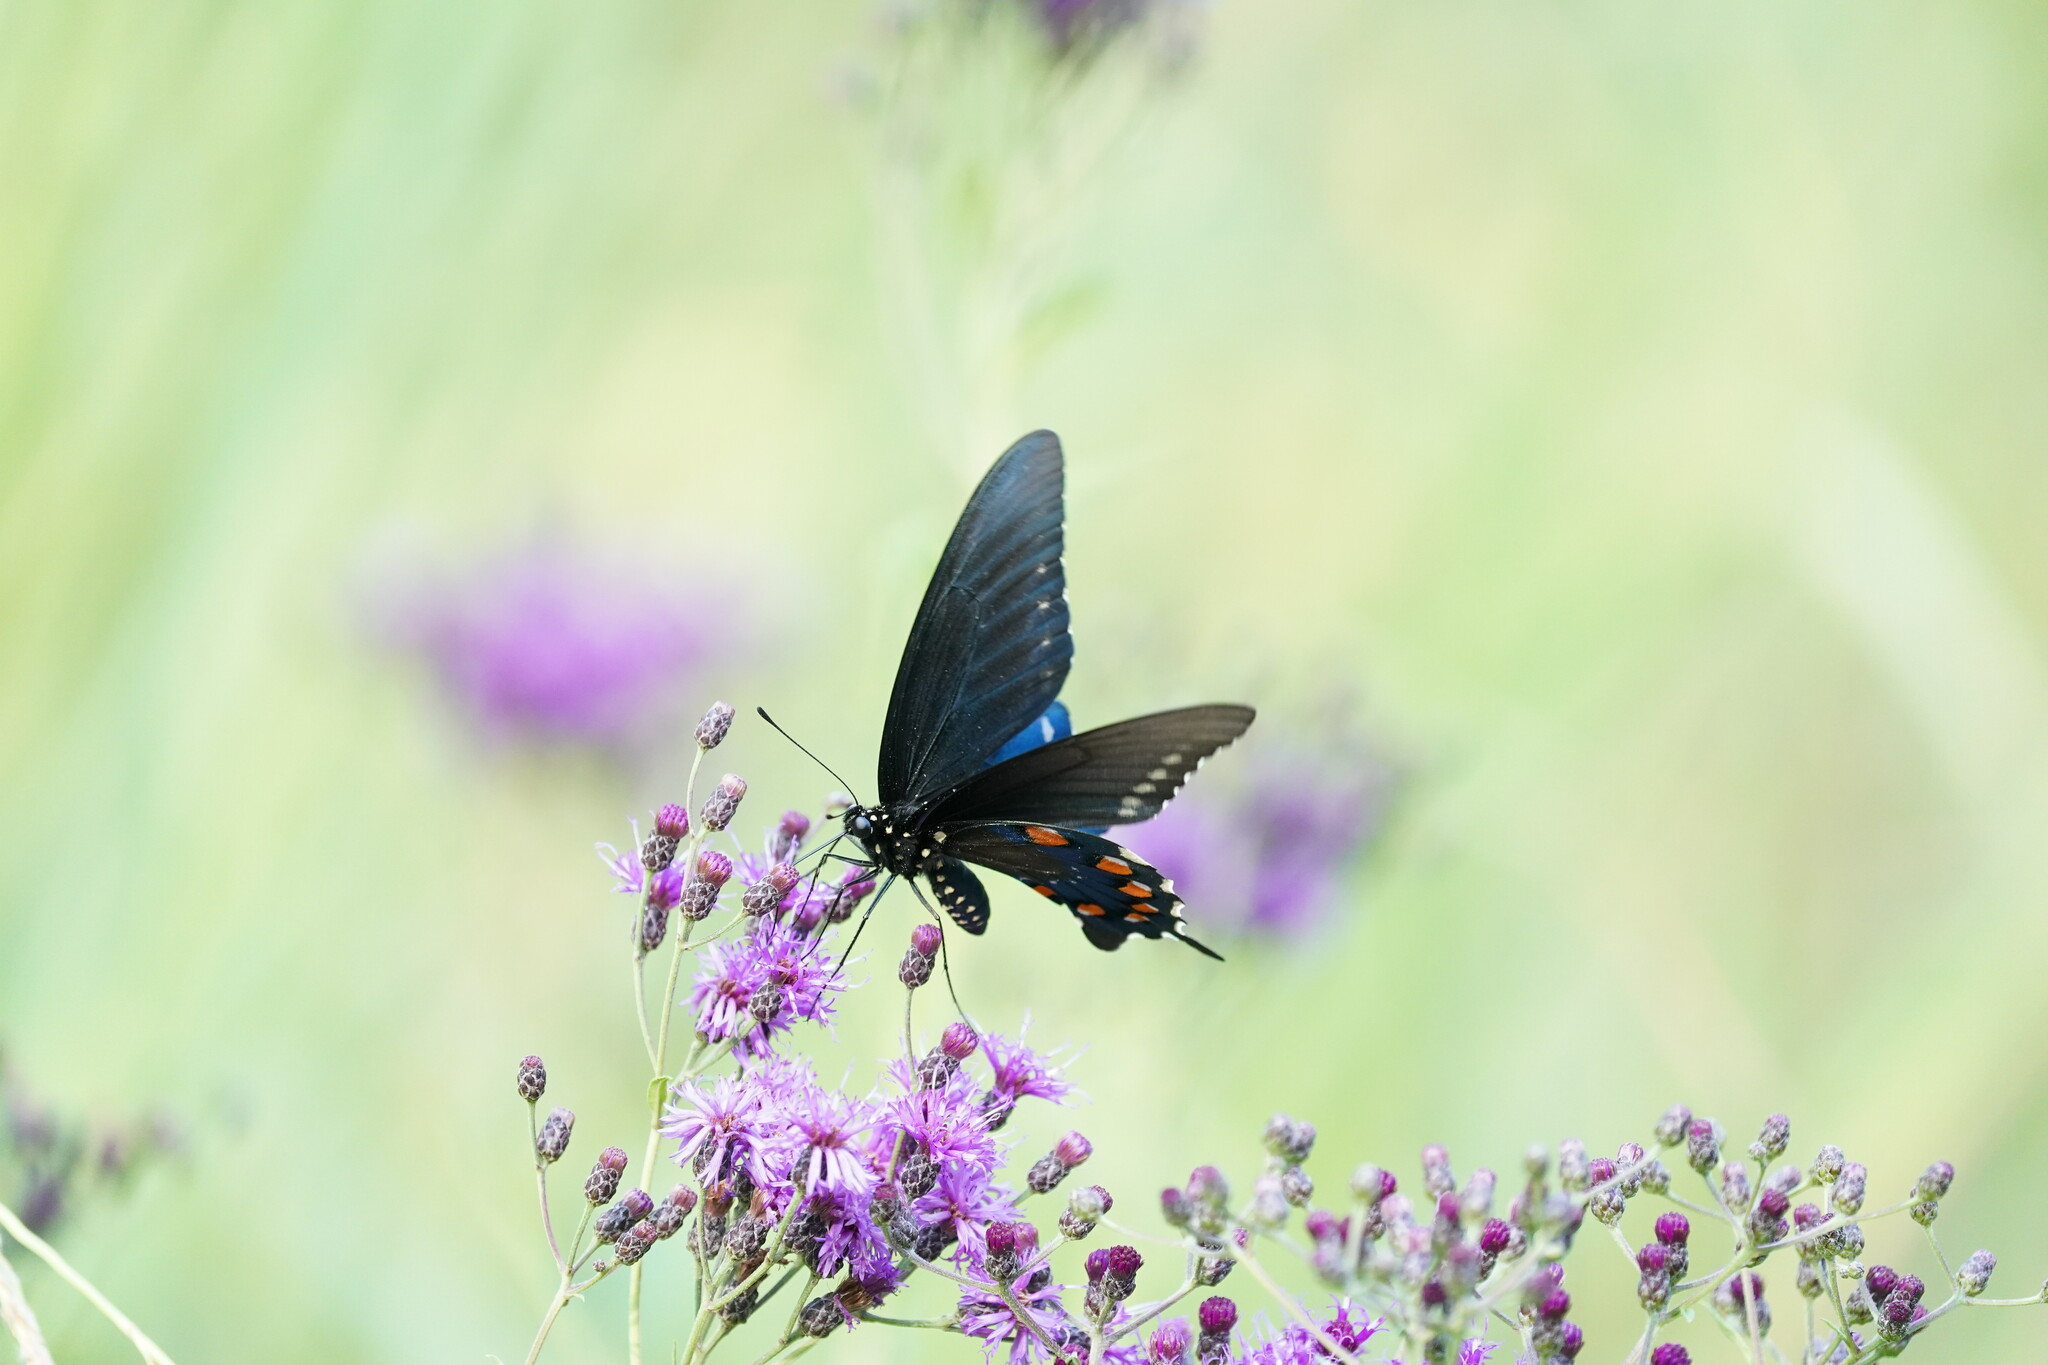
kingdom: Animalia
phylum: Arthropoda
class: Insecta
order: Lepidoptera
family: Papilionidae
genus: Battus
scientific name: Battus philenor
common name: Pipevine swallowtail
